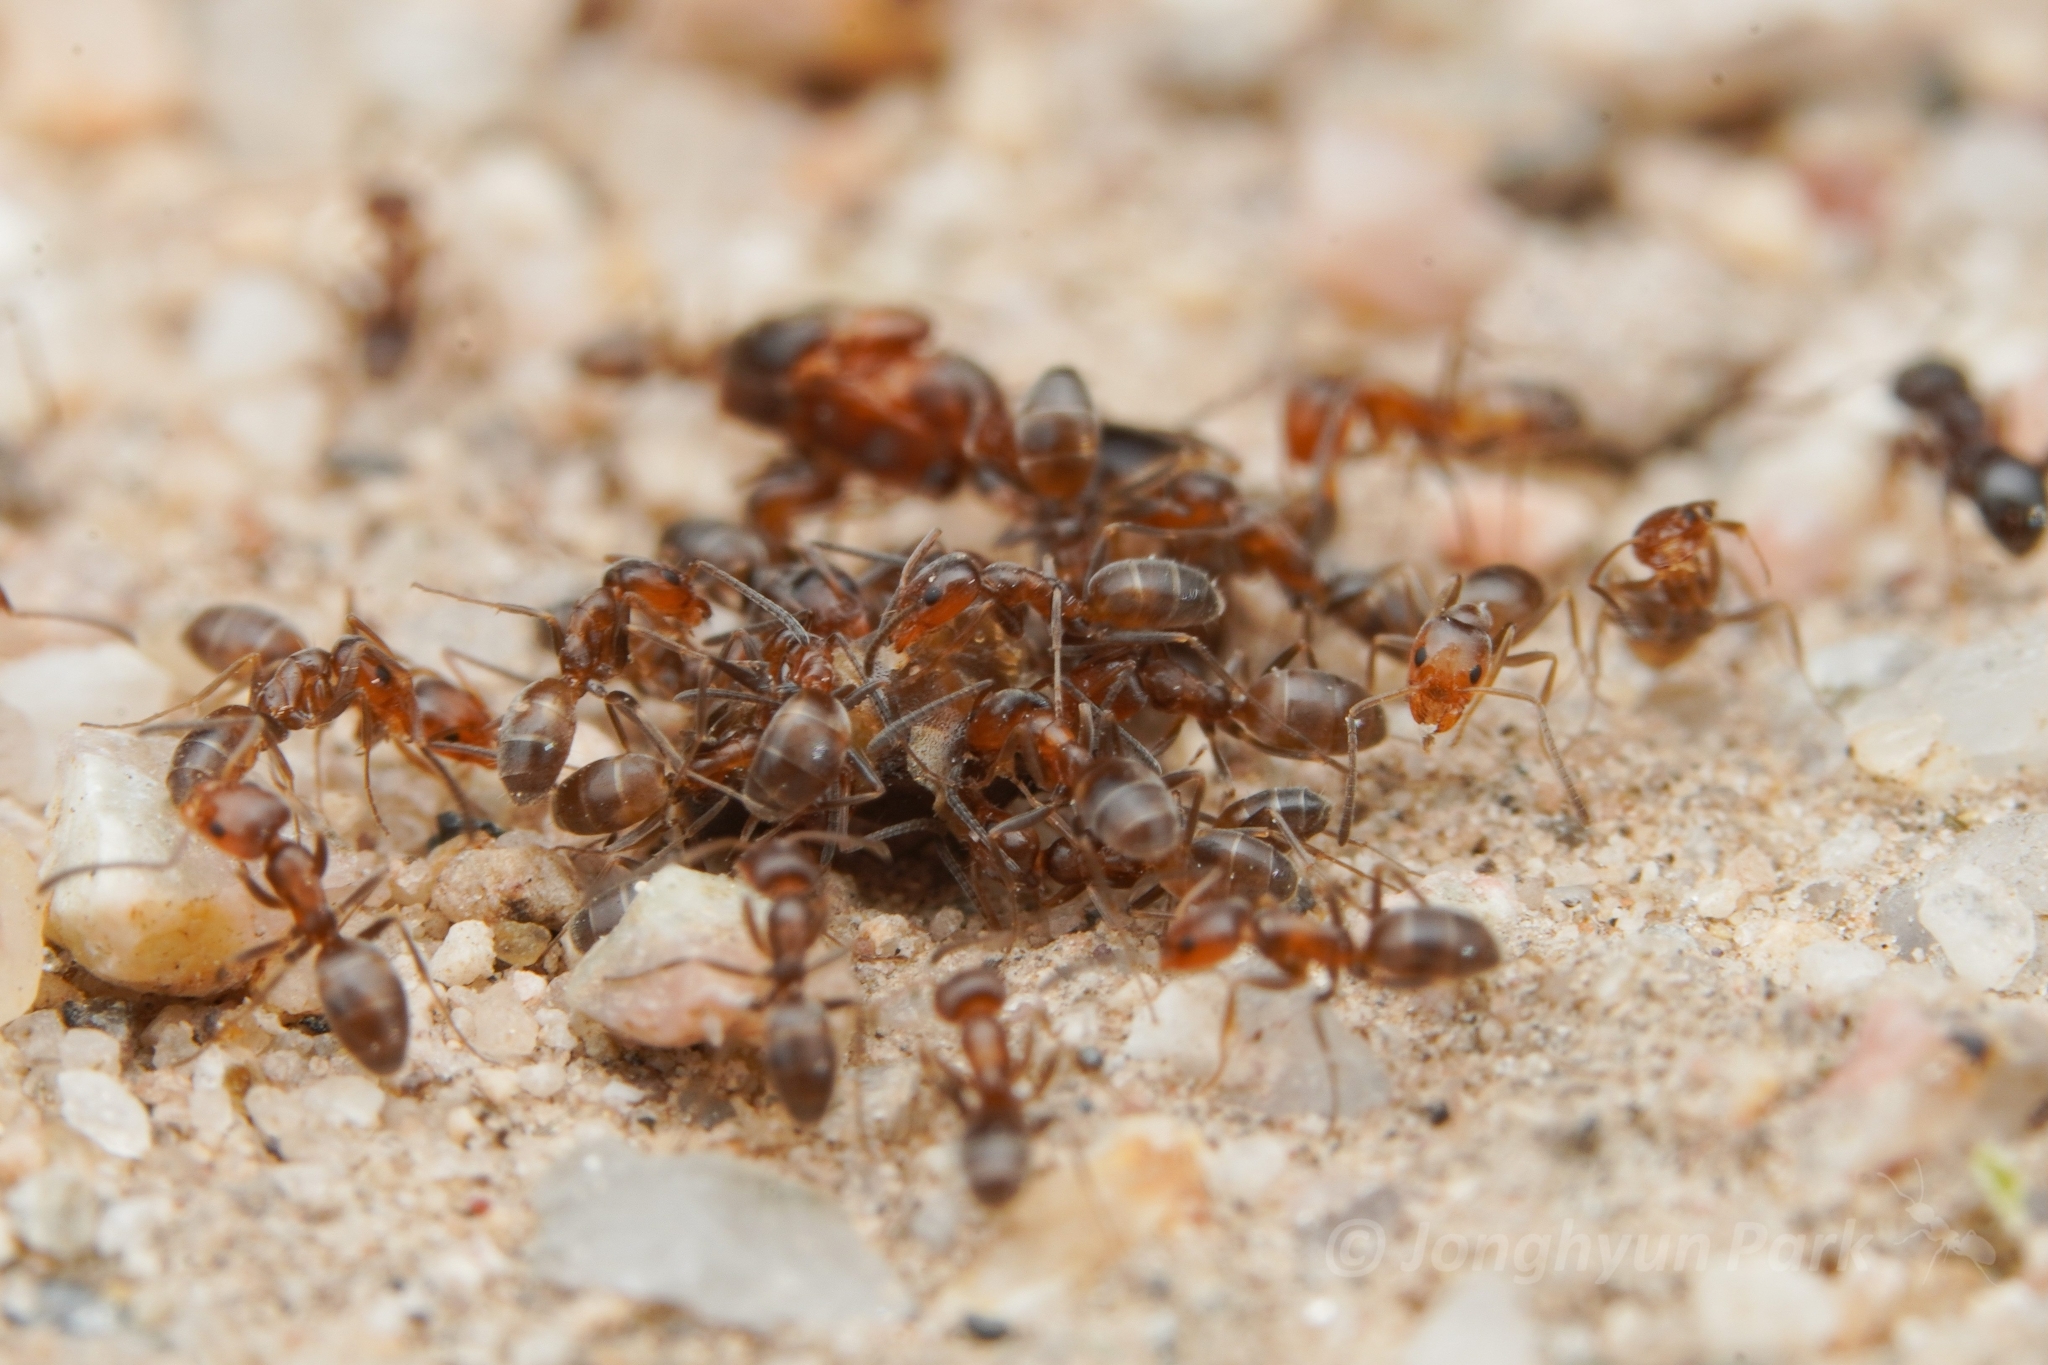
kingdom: Animalia
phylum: Arthropoda
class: Insecta
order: Hymenoptera
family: Formicidae
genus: Forelius
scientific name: Forelius pruinosus
